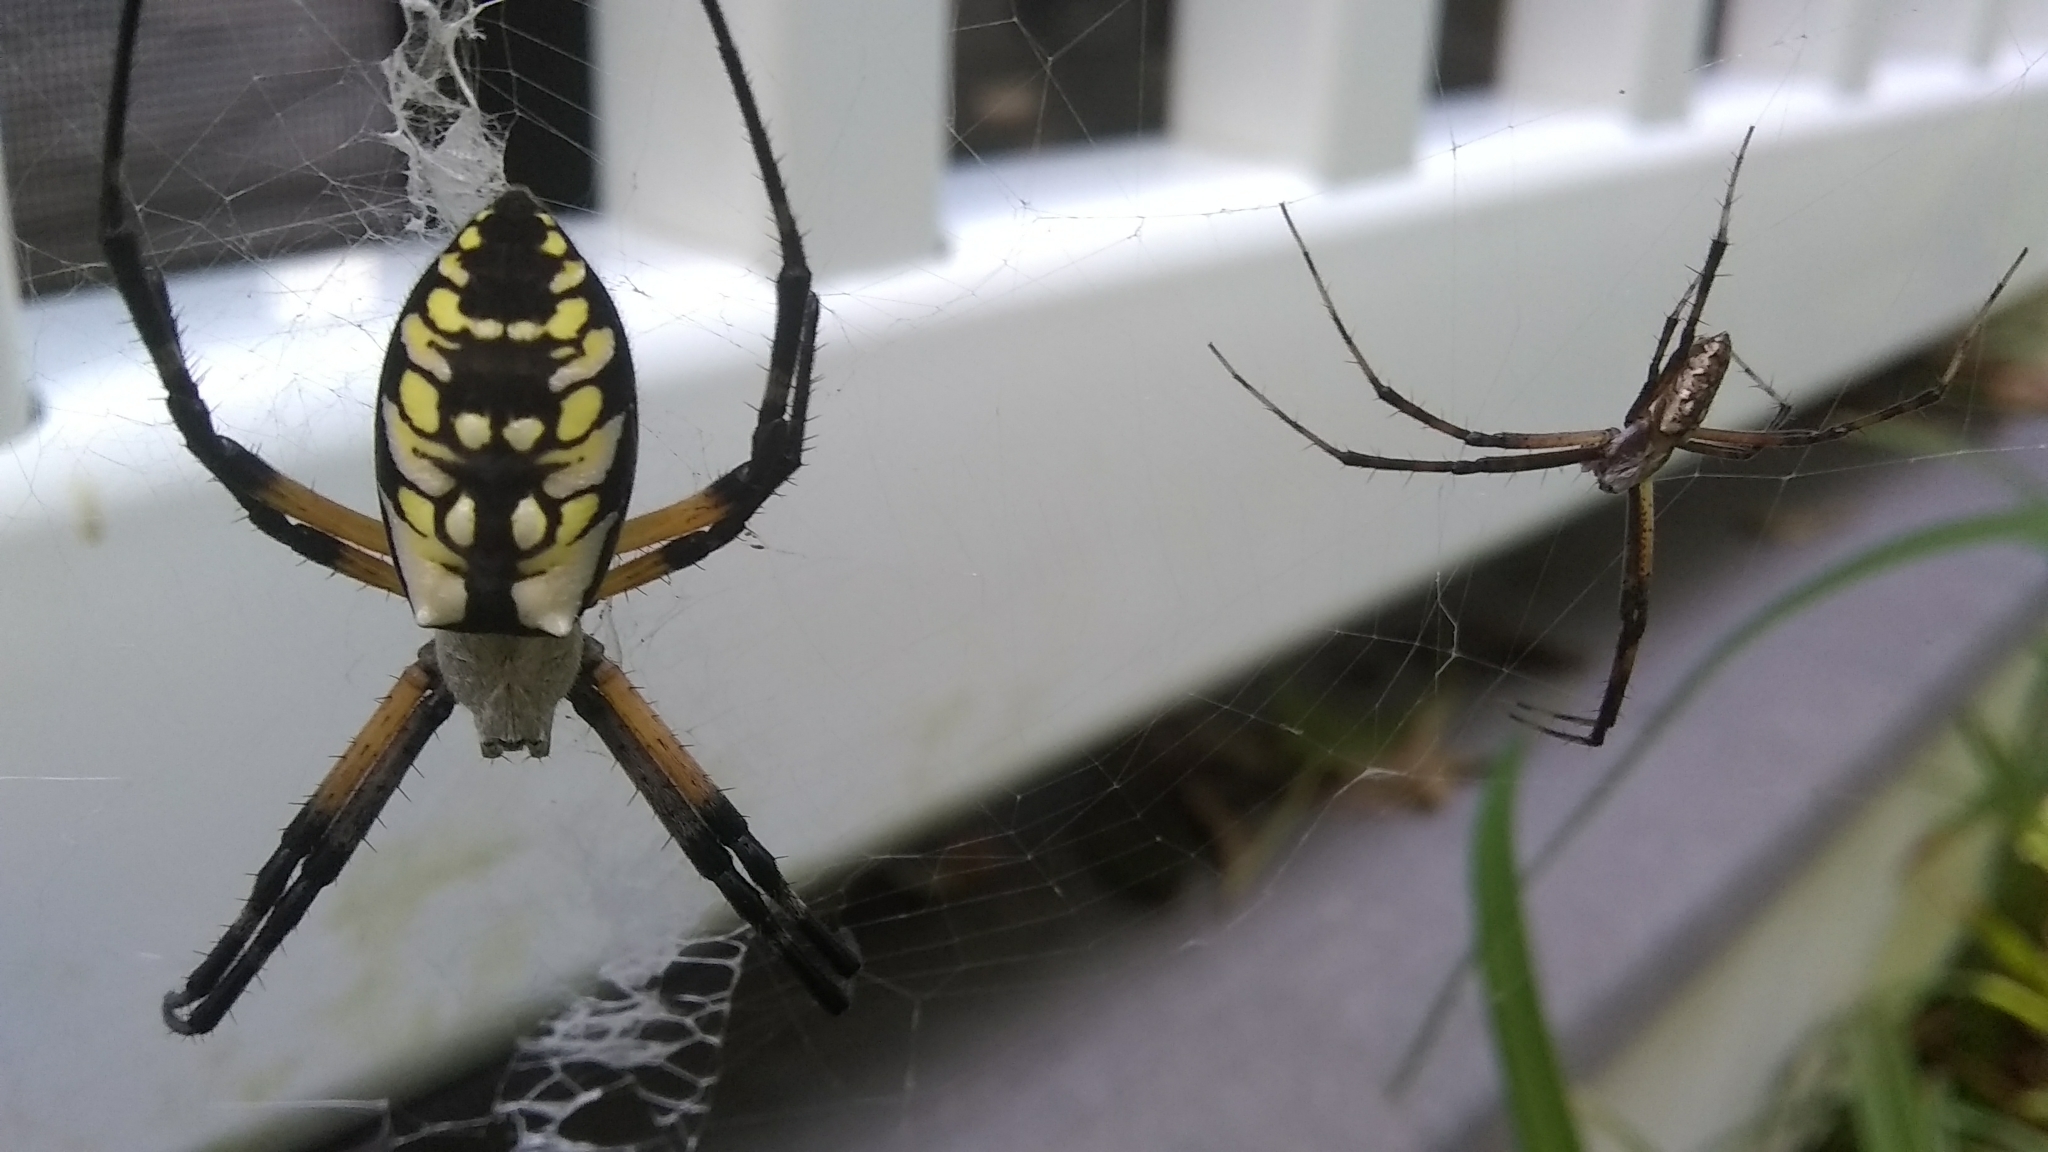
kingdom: Animalia
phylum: Arthropoda
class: Arachnida
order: Araneae
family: Araneidae
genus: Argiope
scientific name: Argiope aurantia
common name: Orb weavers
